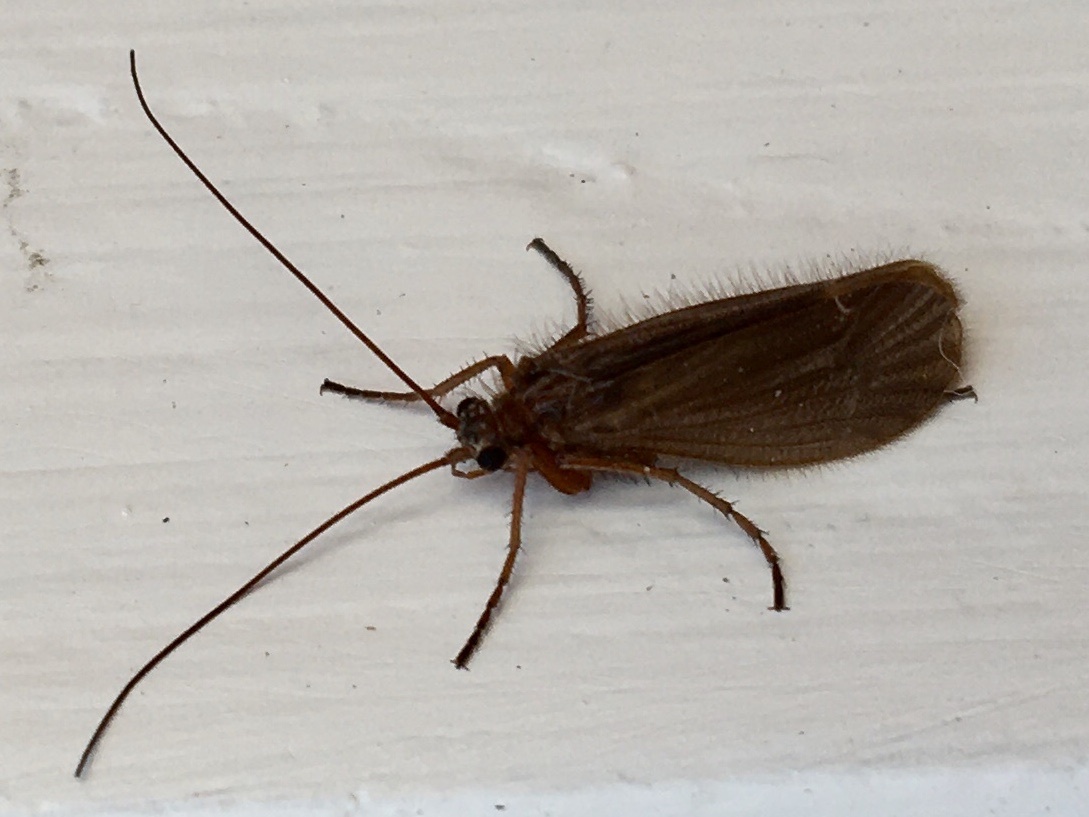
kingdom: Animalia
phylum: Arthropoda
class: Insecta
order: Trichoptera
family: Limnephilidae
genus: Chaetopteryx
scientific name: Chaetopteryx villosa
